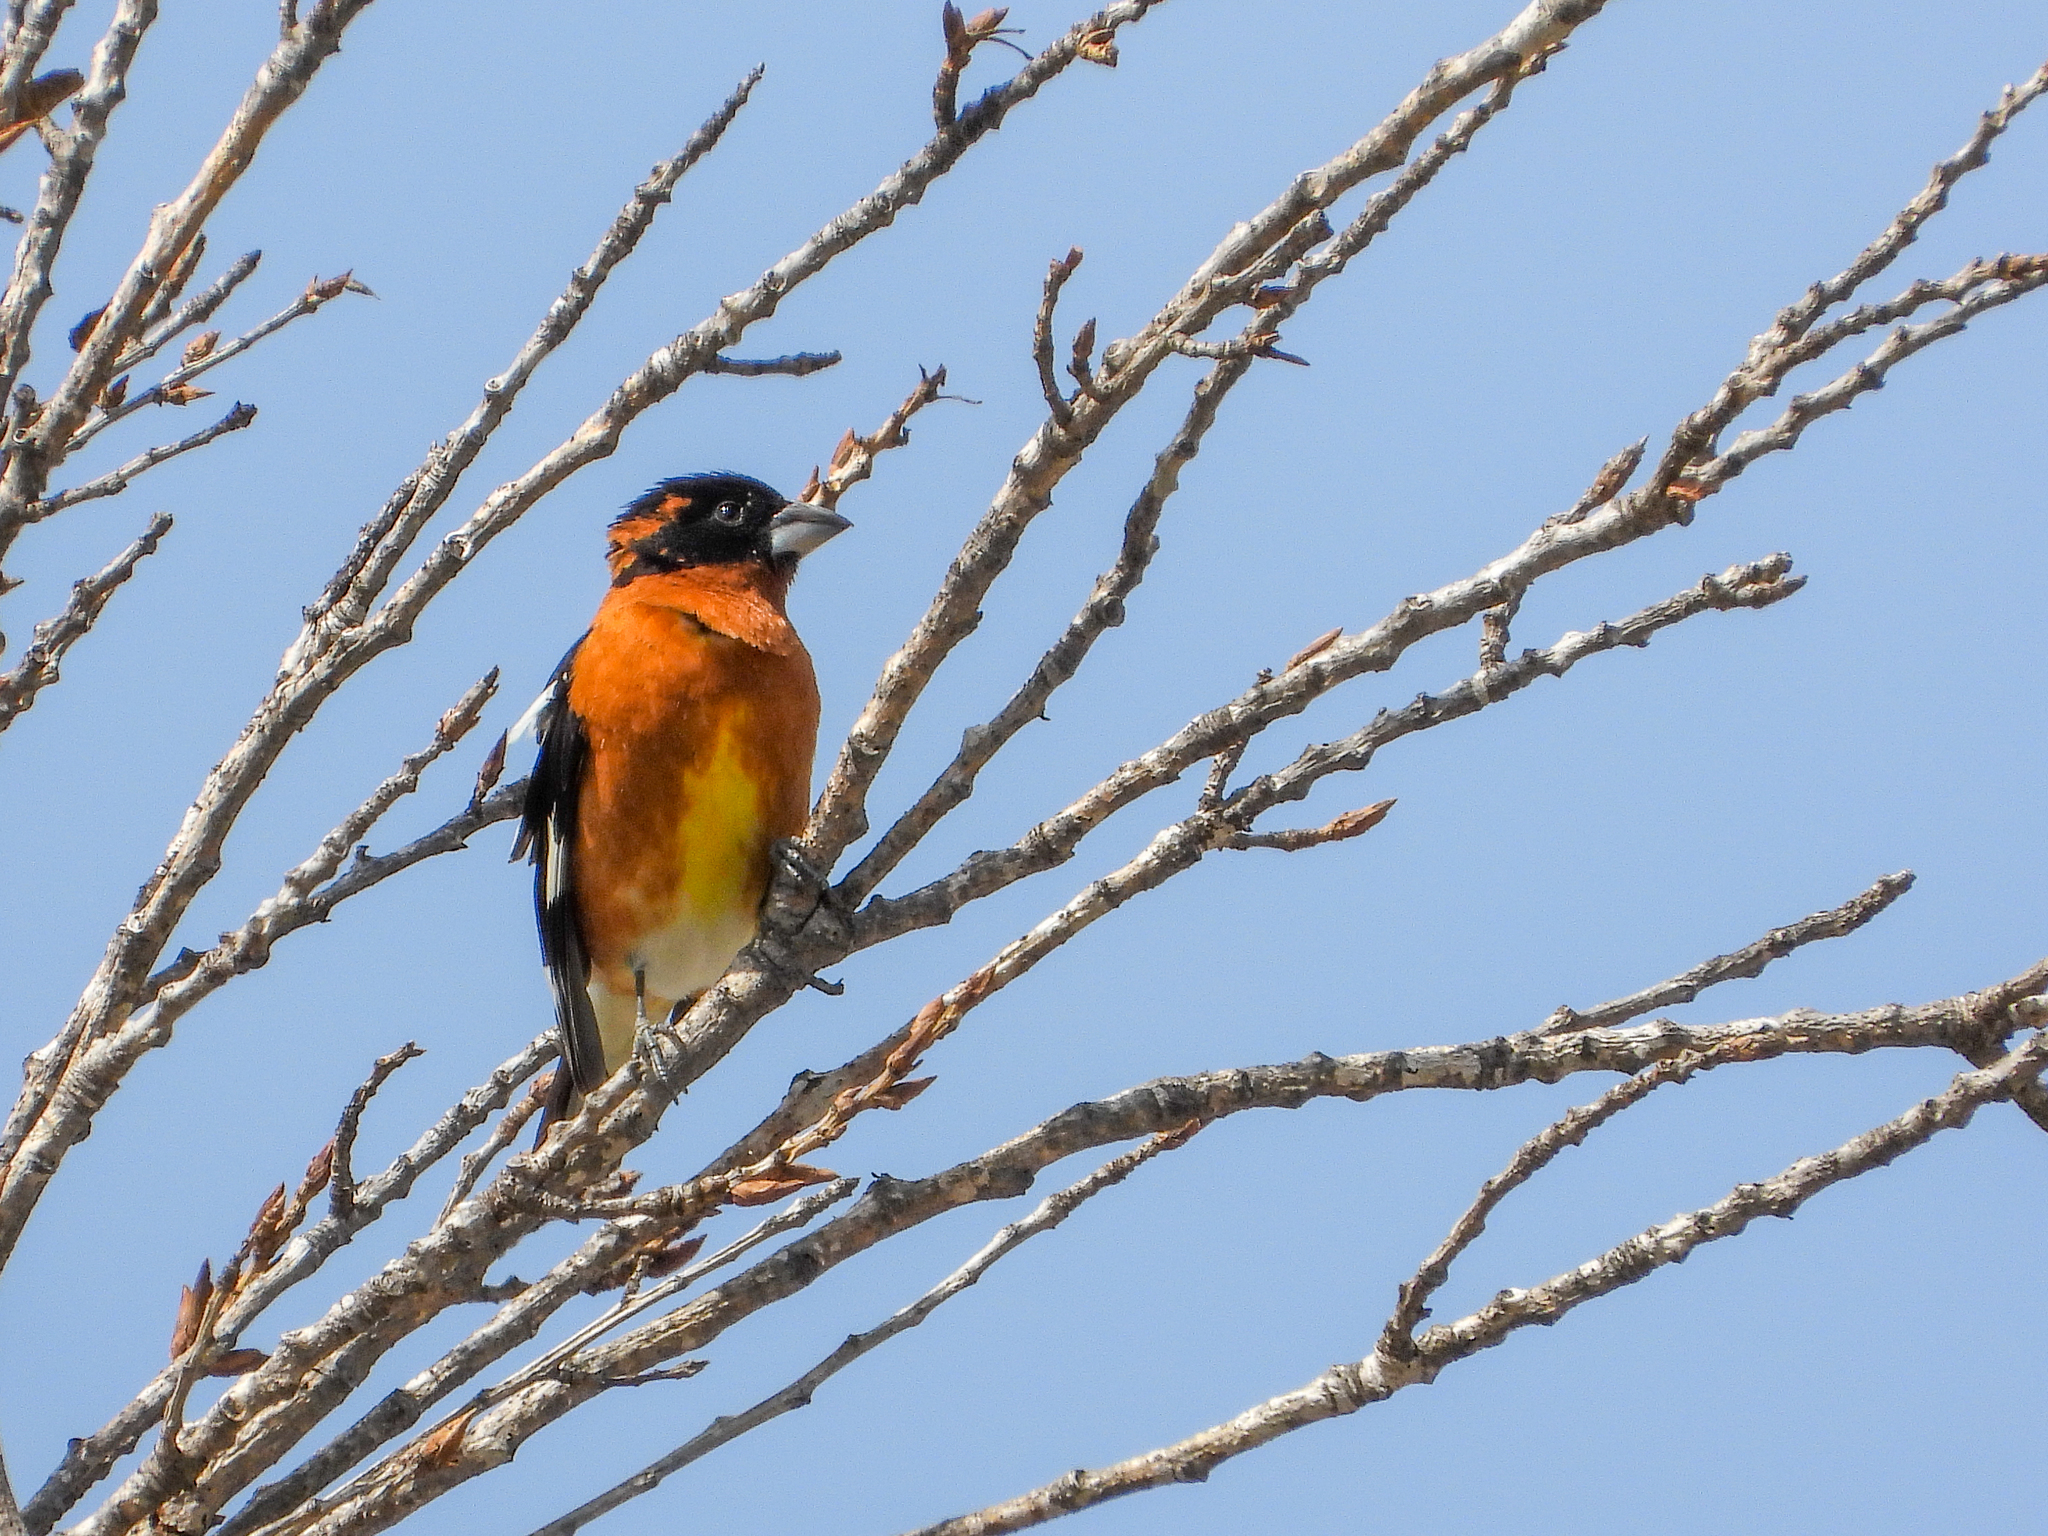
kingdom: Animalia
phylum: Chordata
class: Aves
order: Passeriformes
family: Cardinalidae
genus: Pheucticus
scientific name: Pheucticus melanocephalus
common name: Black-headed grosbeak
